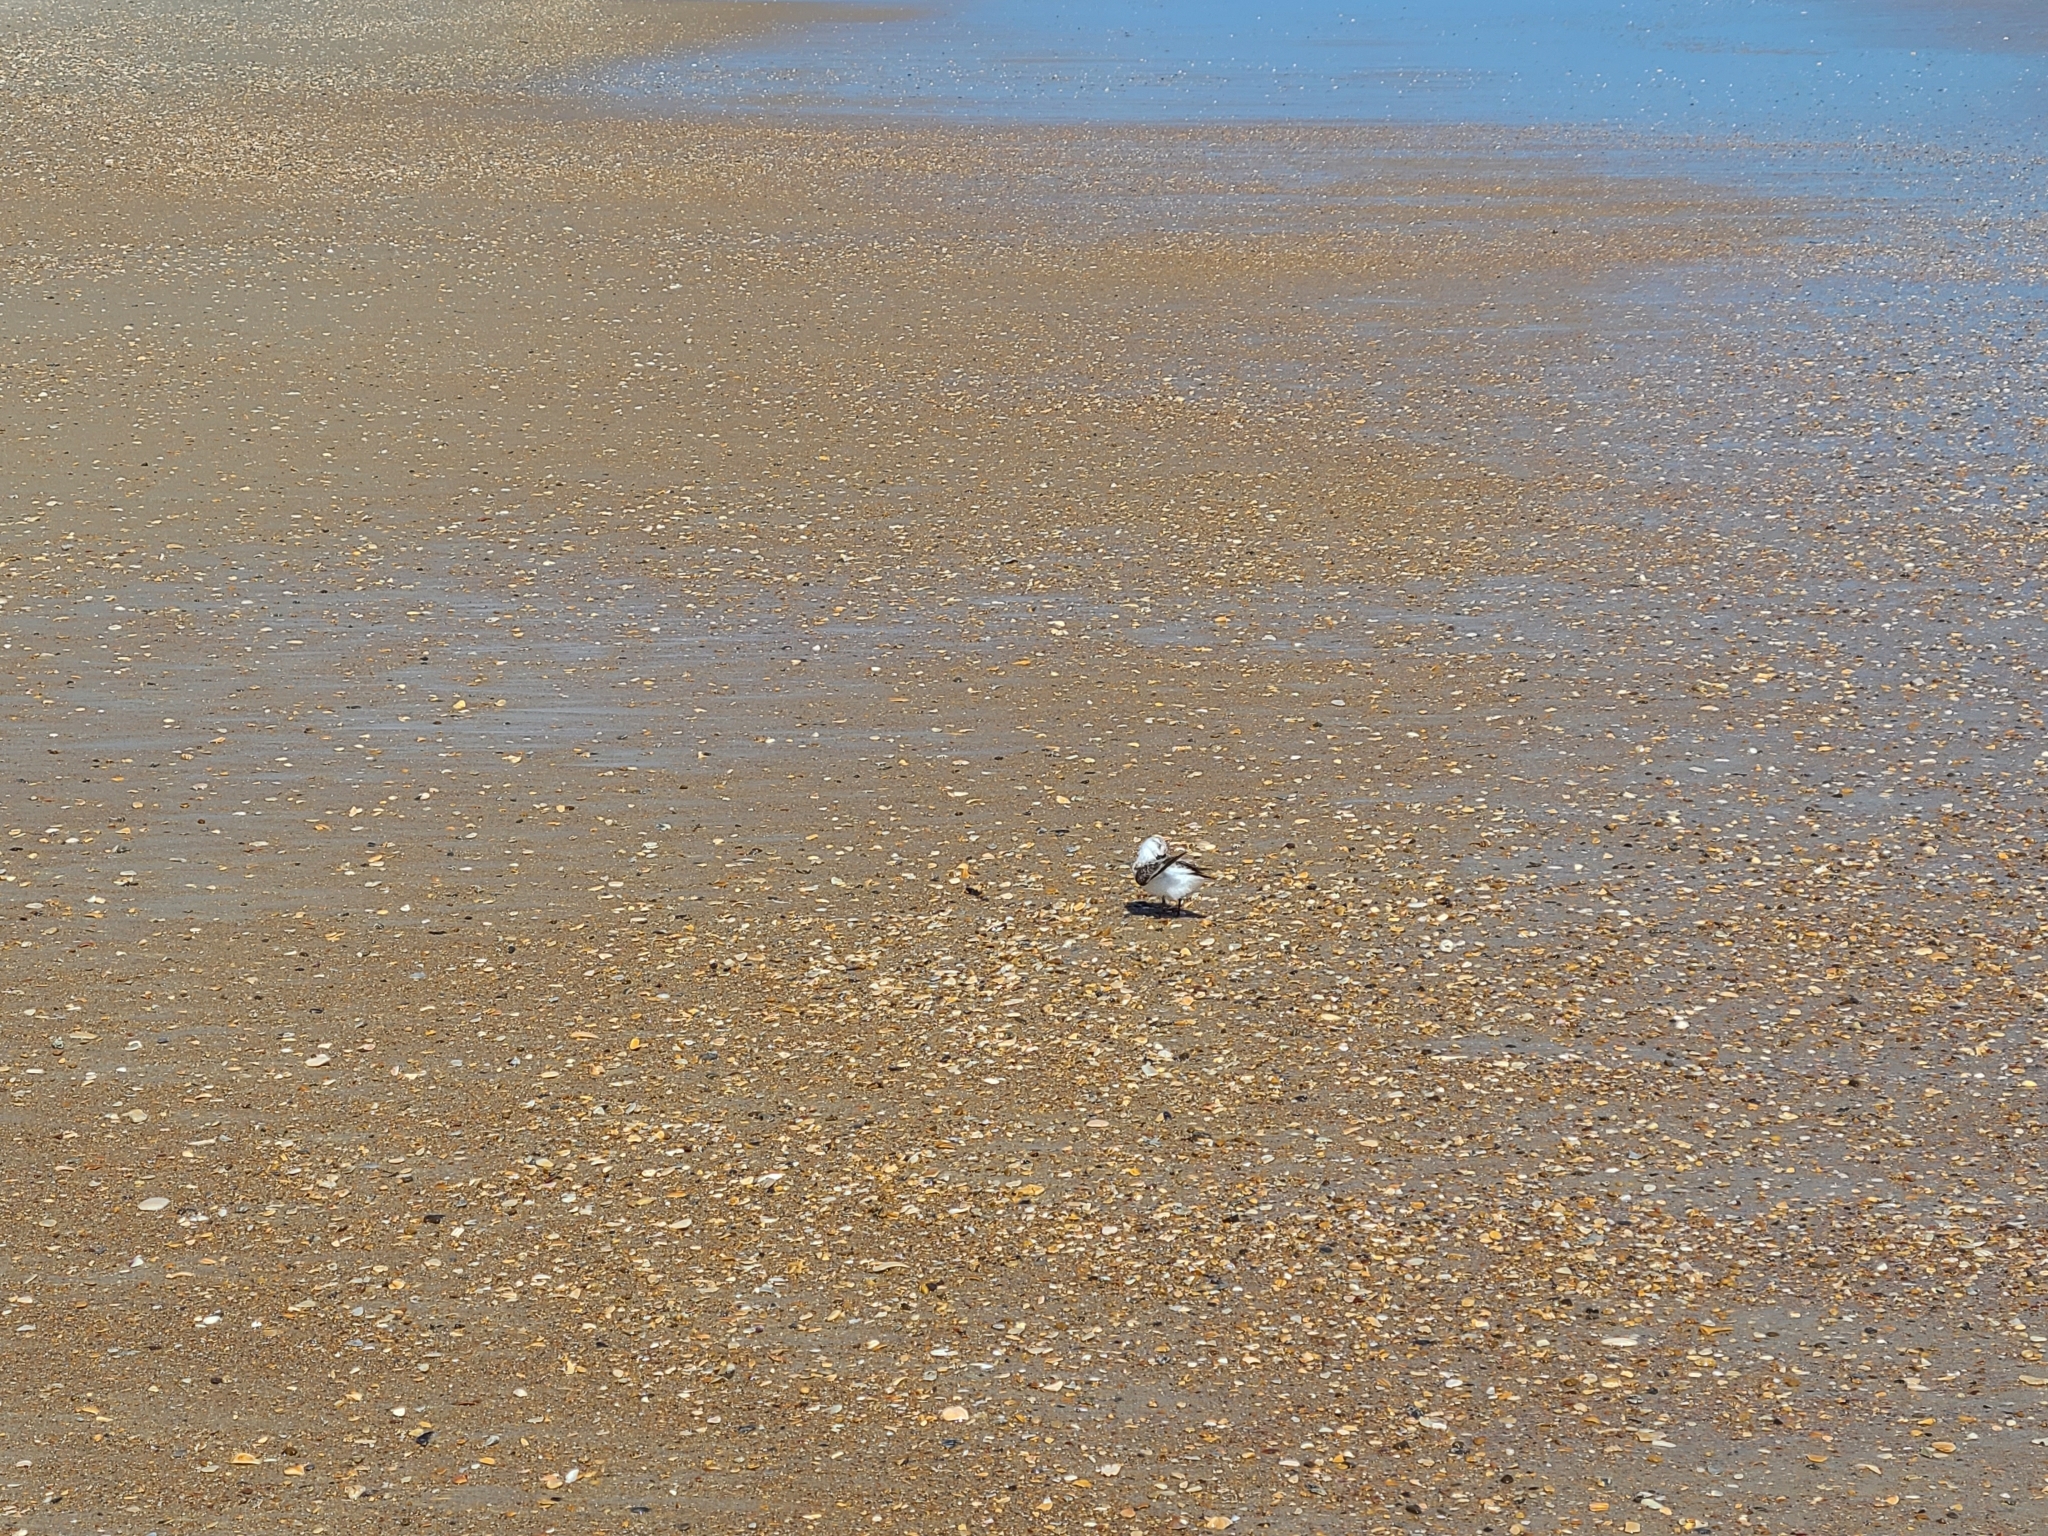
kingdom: Animalia
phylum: Chordata
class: Aves
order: Charadriiformes
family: Scolopacidae
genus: Calidris
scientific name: Calidris alba
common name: Sanderling
